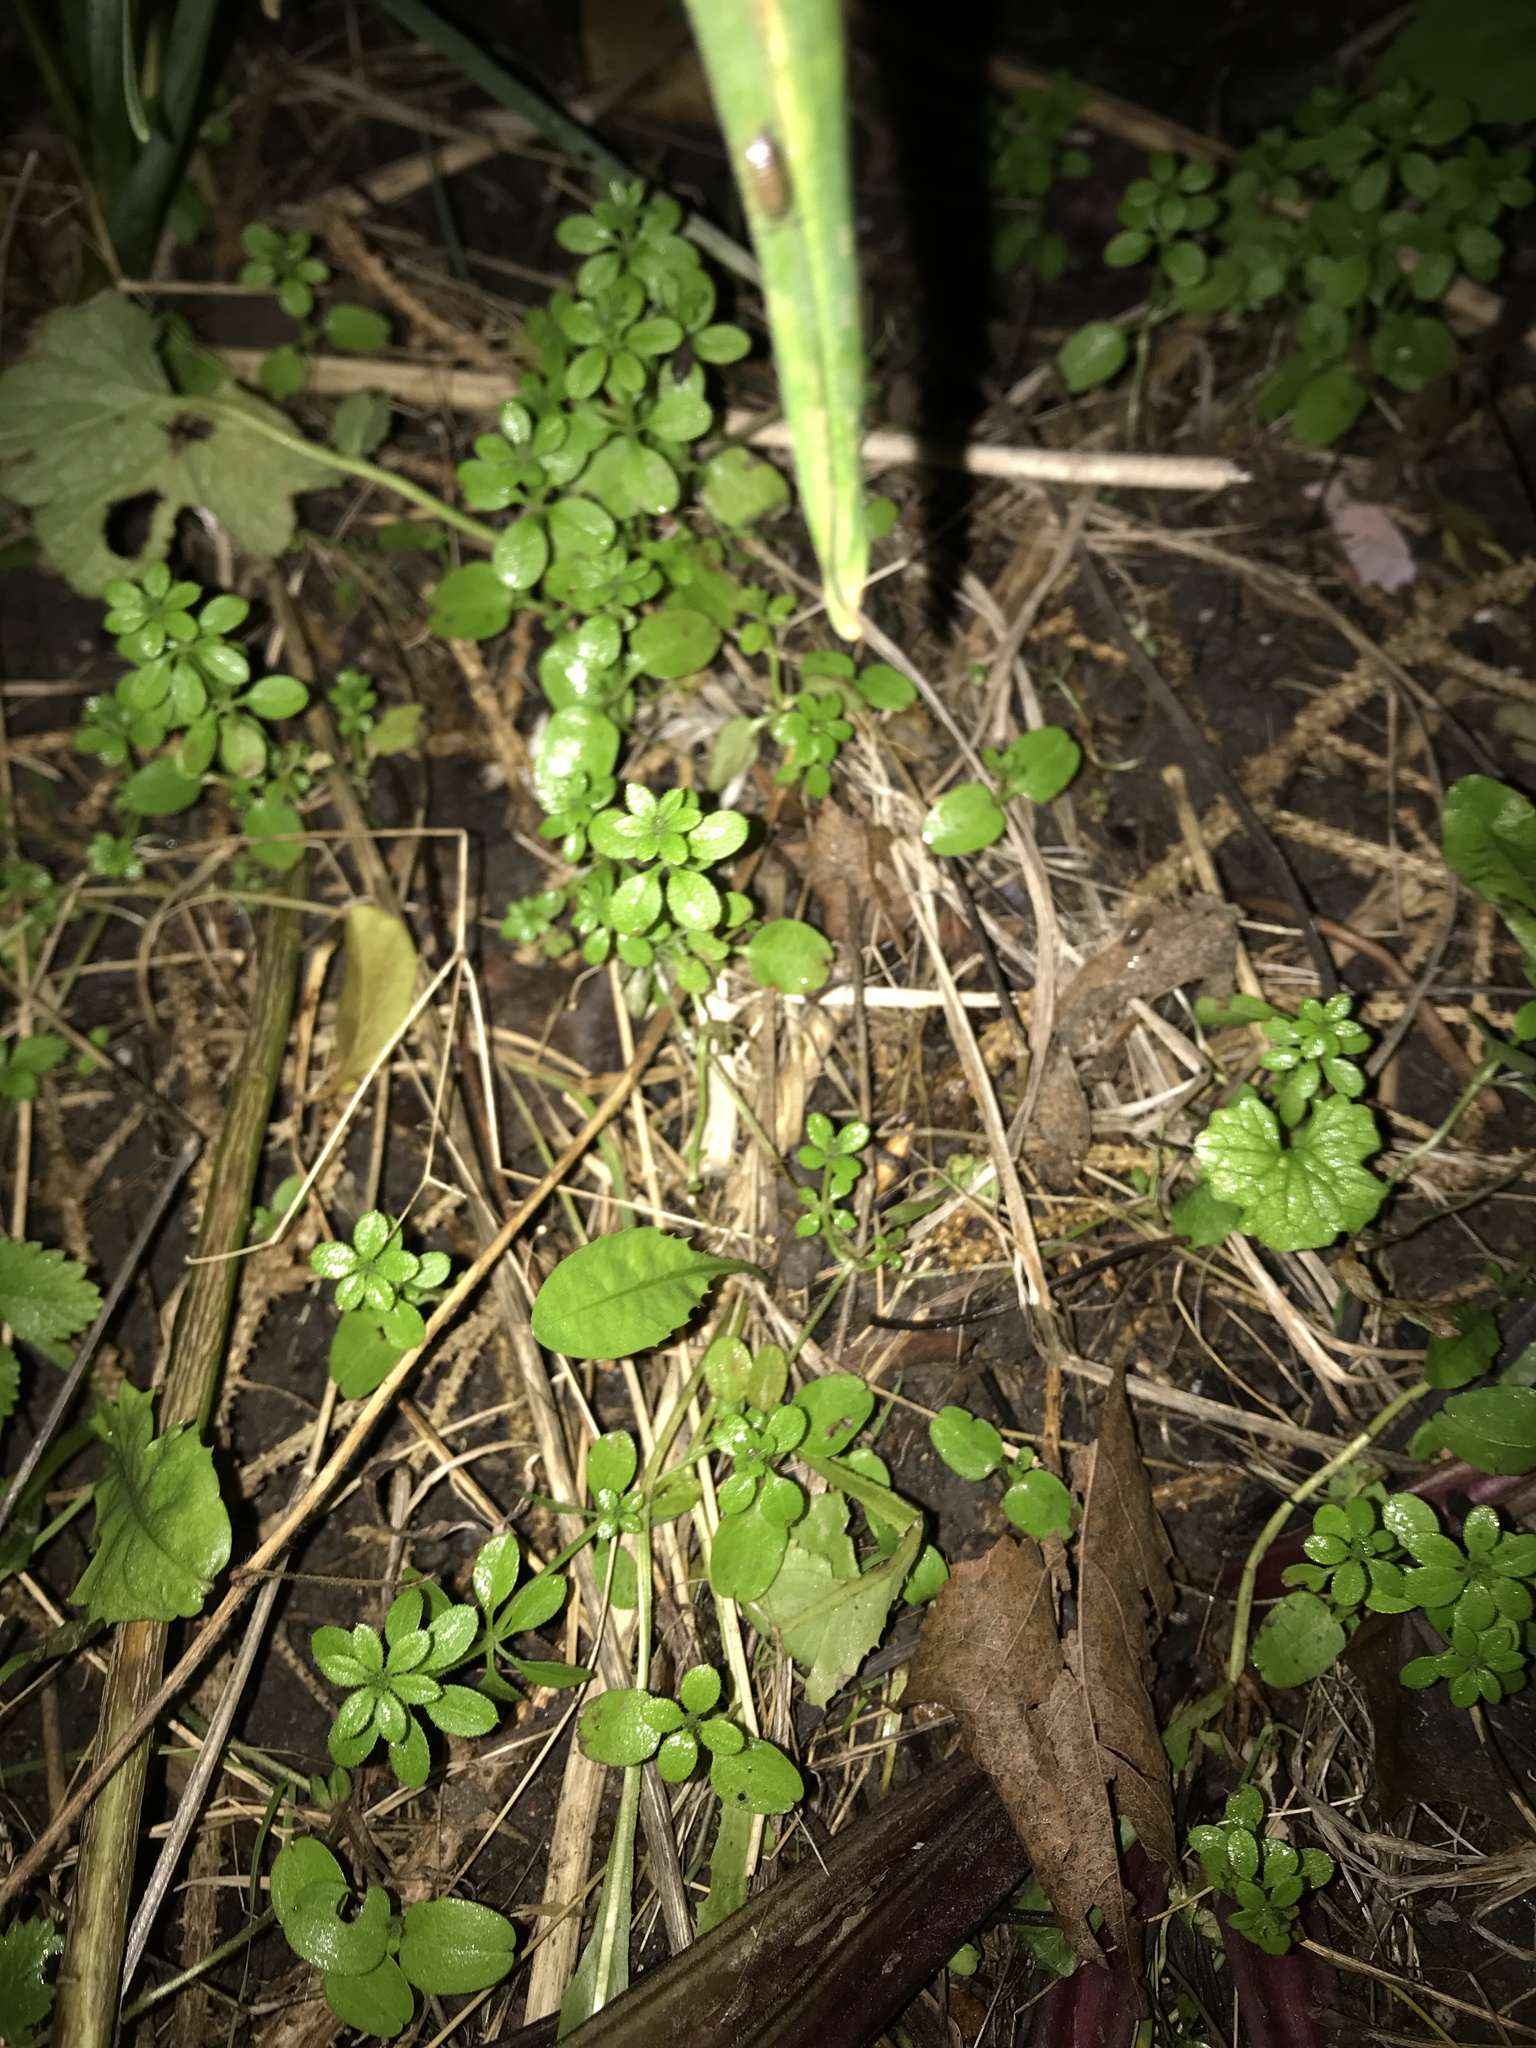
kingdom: Plantae
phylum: Tracheophyta
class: Magnoliopsida
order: Caryophyllales
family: Caryophyllaceae
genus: Stellaria
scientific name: Stellaria media
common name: Common chickweed
